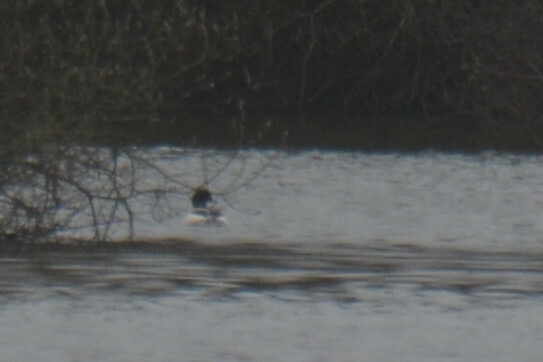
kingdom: Animalia
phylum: Chordata
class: Aves
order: Anseriformes
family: Anatidae
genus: Mergus
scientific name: Mergus merganser
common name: Common merganser
